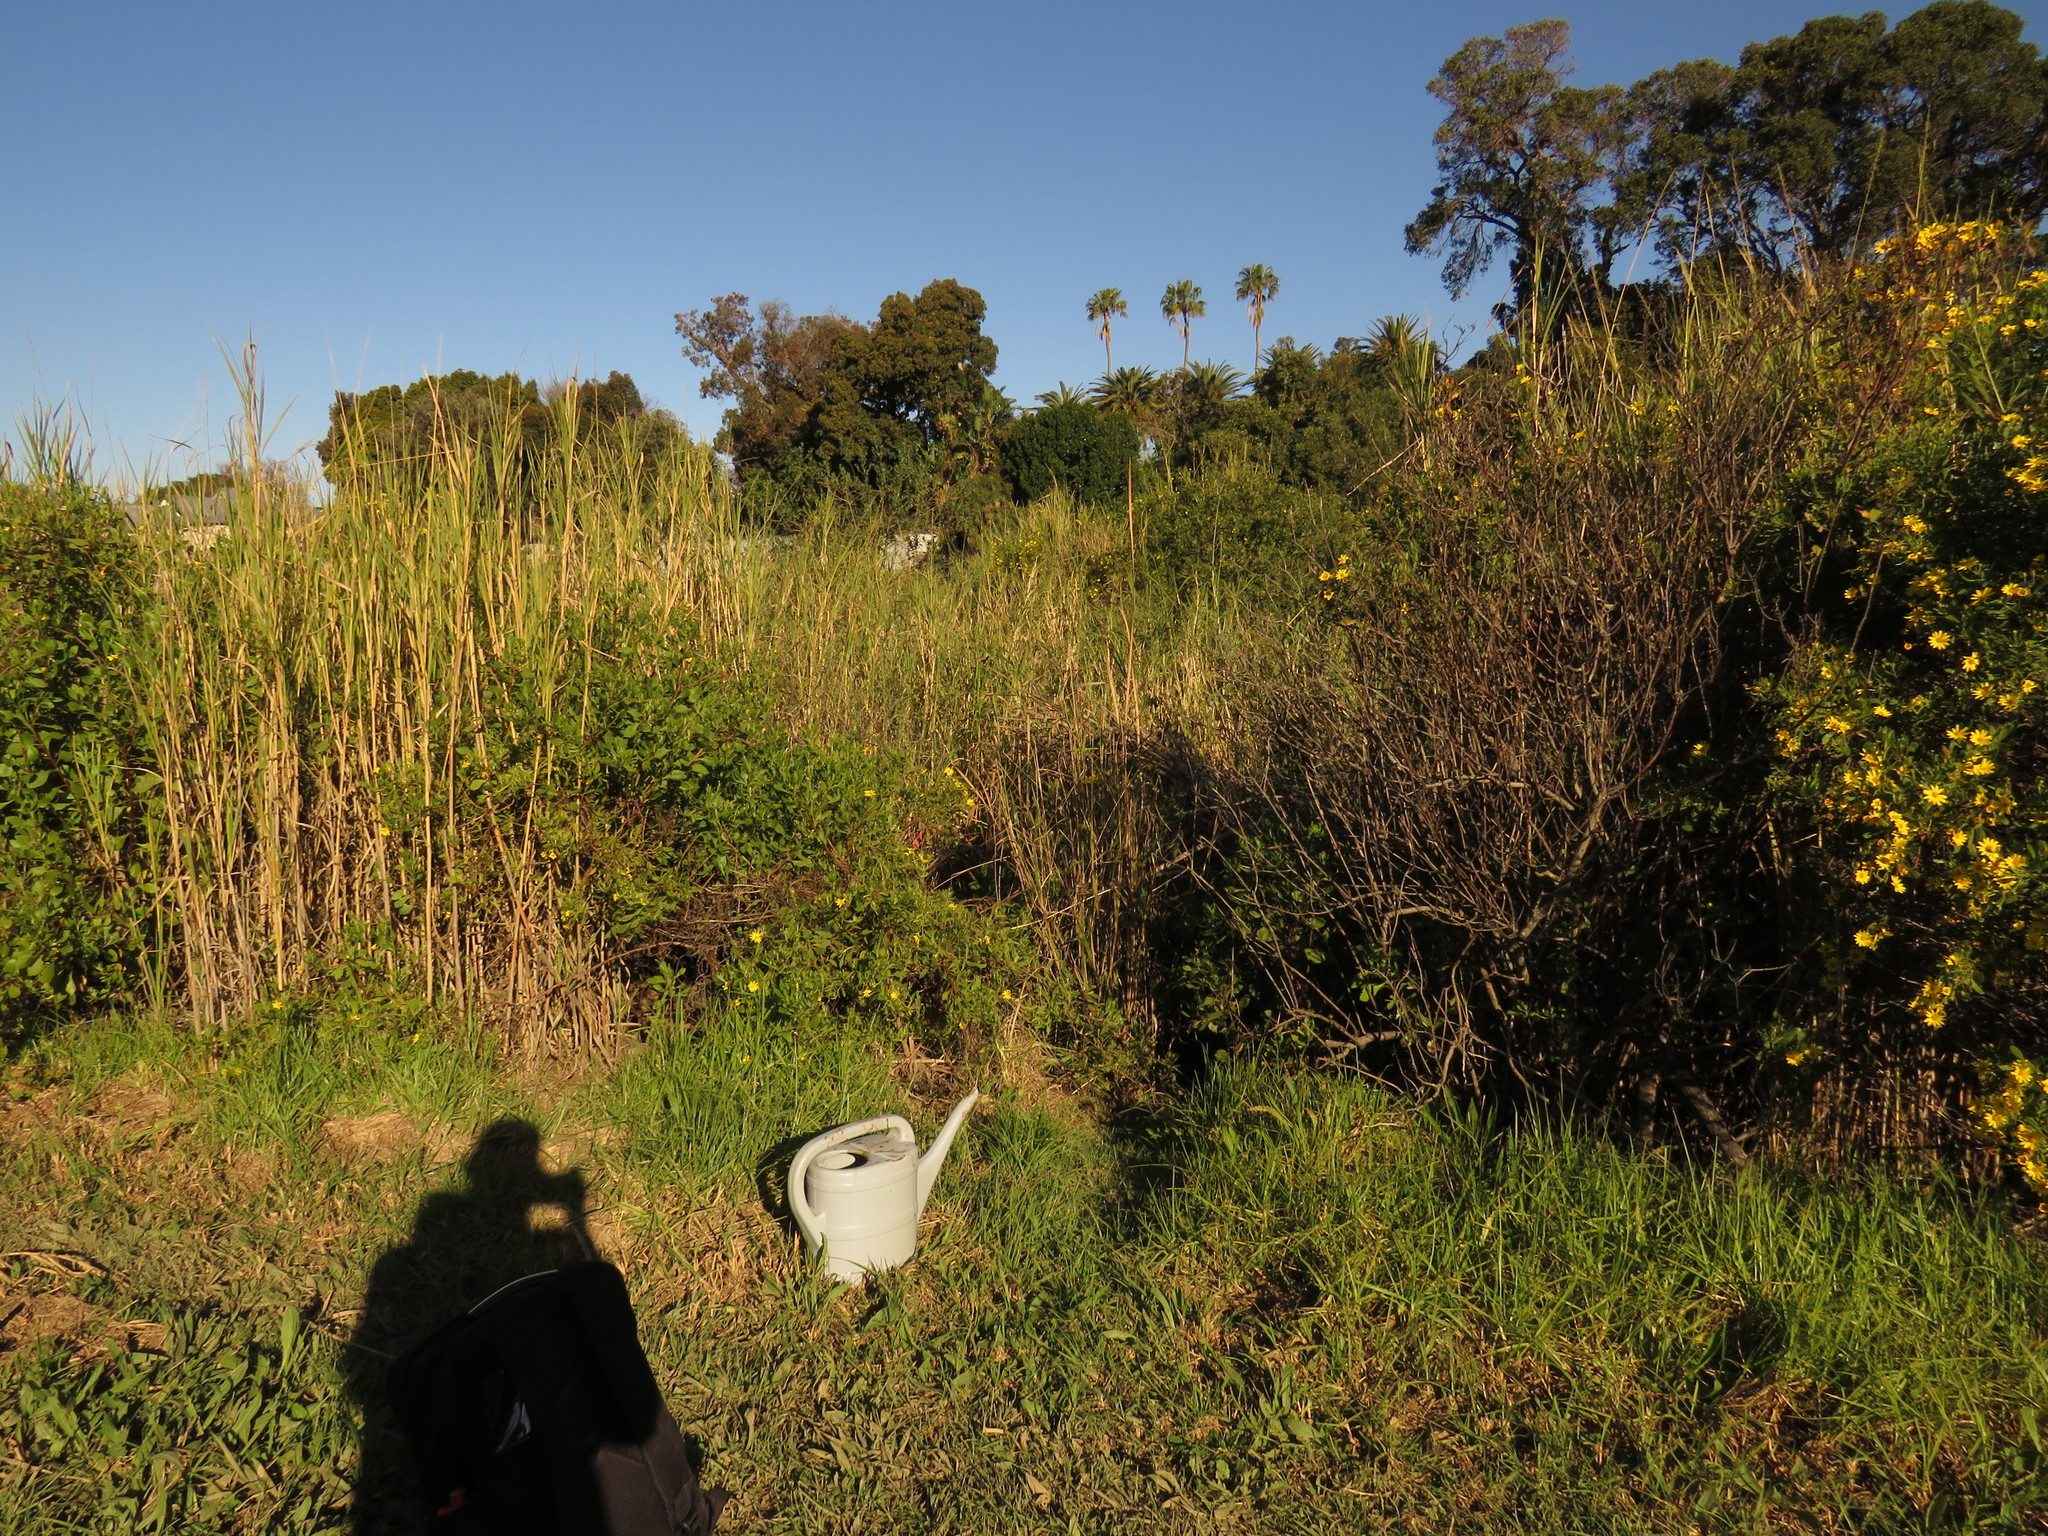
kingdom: Plantae
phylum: Tracheophyta
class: Magnoliopsida
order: Fabales
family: Fabaceae
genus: Psoralea
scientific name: Psoralea fascicularis
